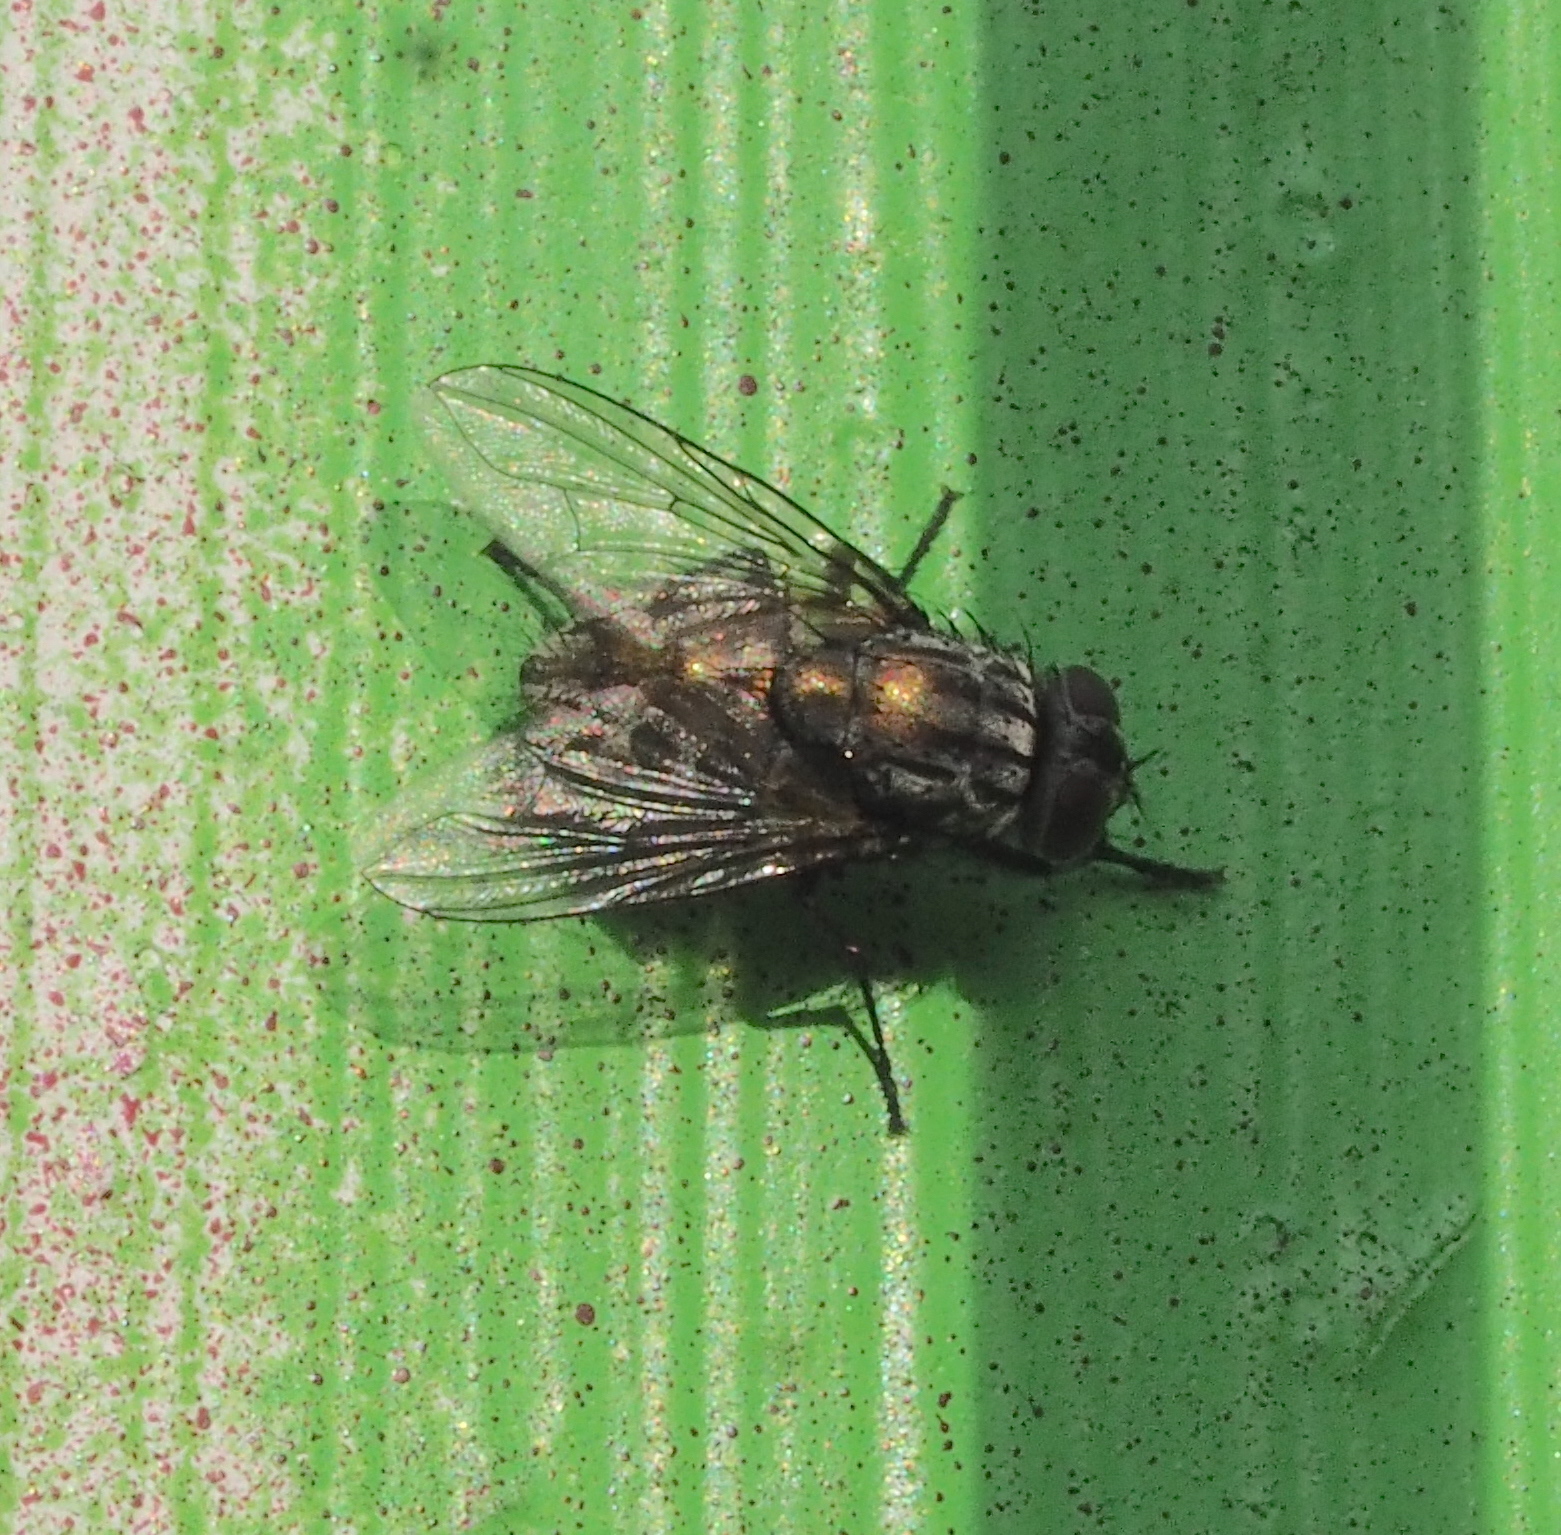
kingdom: Animalia
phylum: Arthropoda
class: Insecta
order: Diptera
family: Muscidae
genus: Dasyphora
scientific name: Dasyphora albofasciata
